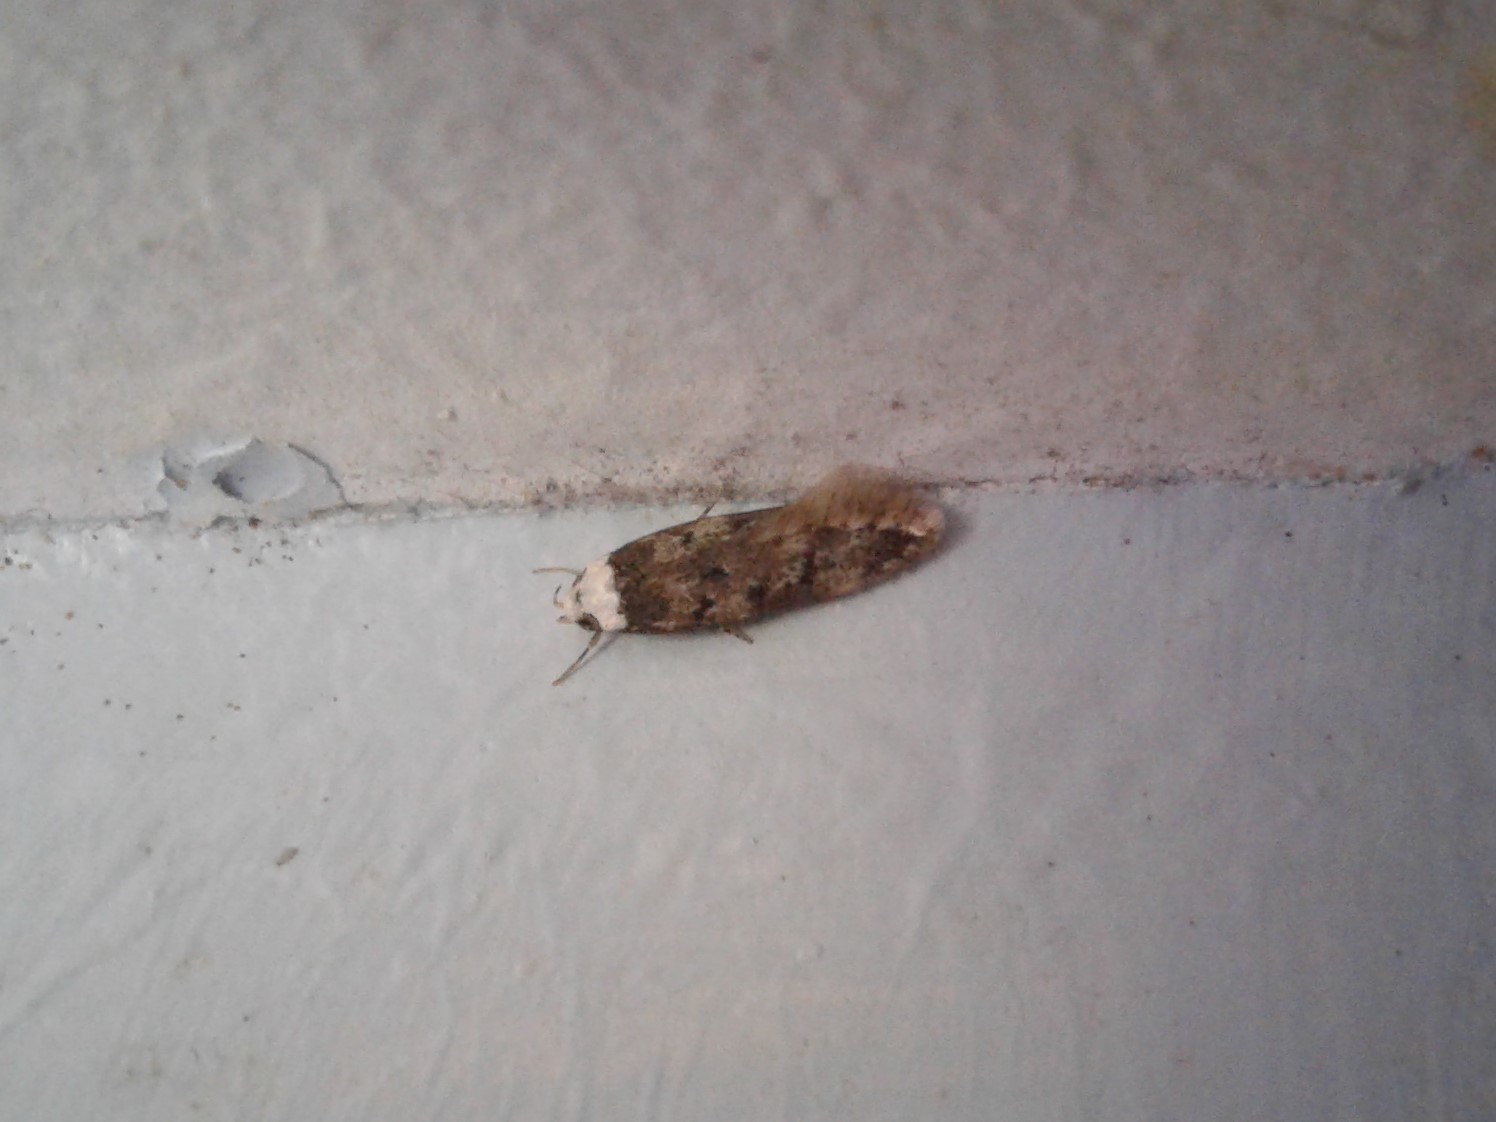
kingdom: Animalia
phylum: Arthropoda
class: Insecta
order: Lepidoptera
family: Oecophoridae
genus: Endrosis
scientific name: Endrosis sarcitrella
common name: White-shouldered house moth
